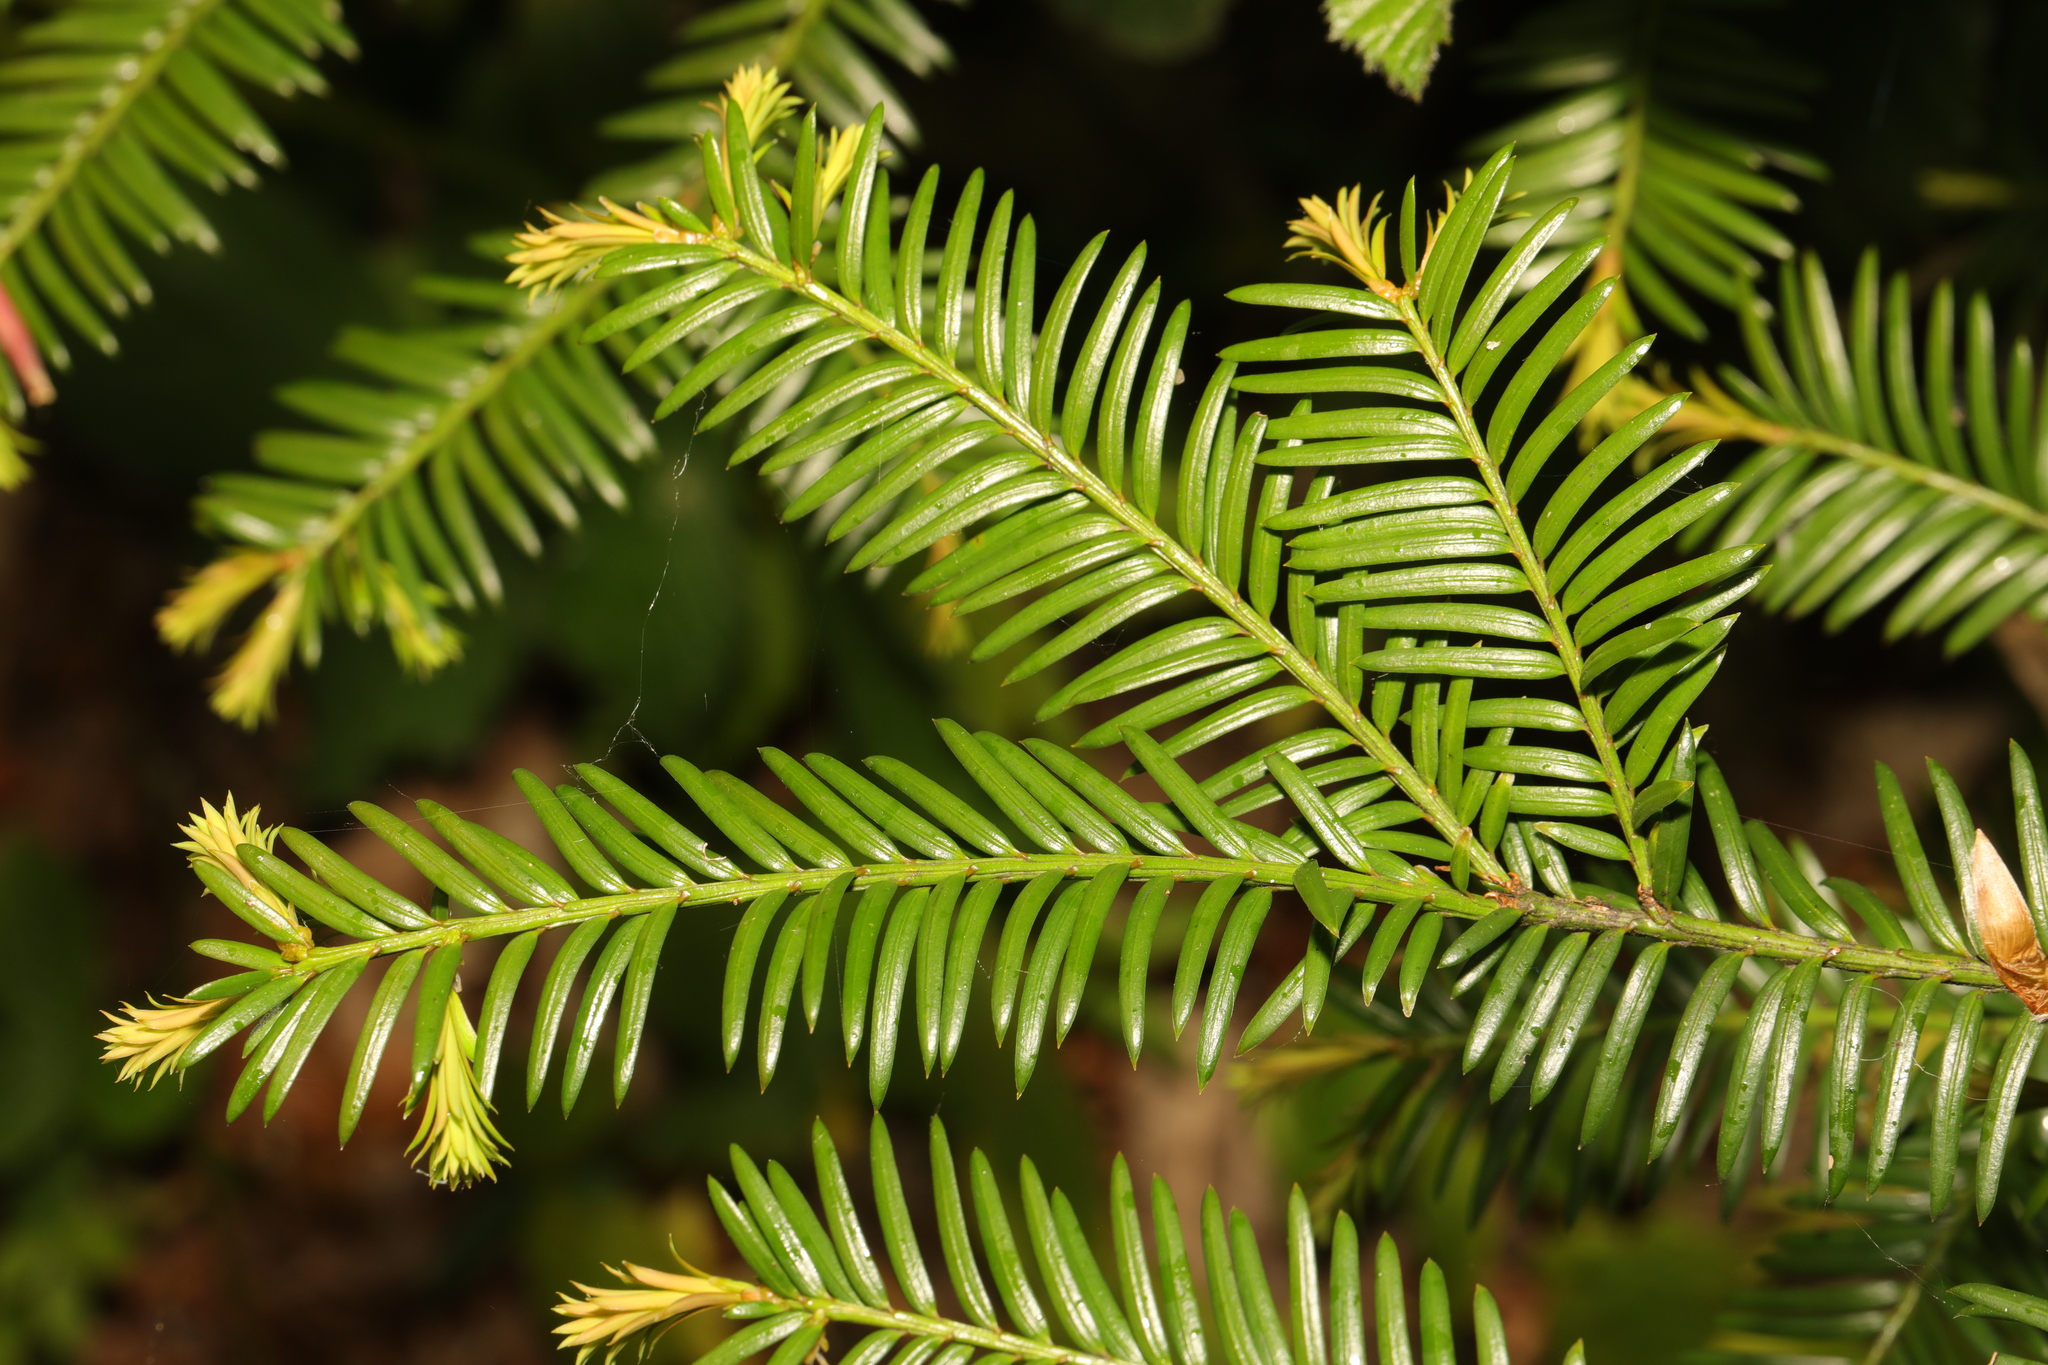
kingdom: Plantae
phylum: Tracheophyta
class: Pinopsida
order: Pinales
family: Taxaceae
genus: Taxus
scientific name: Taxus baccata
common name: Yew
